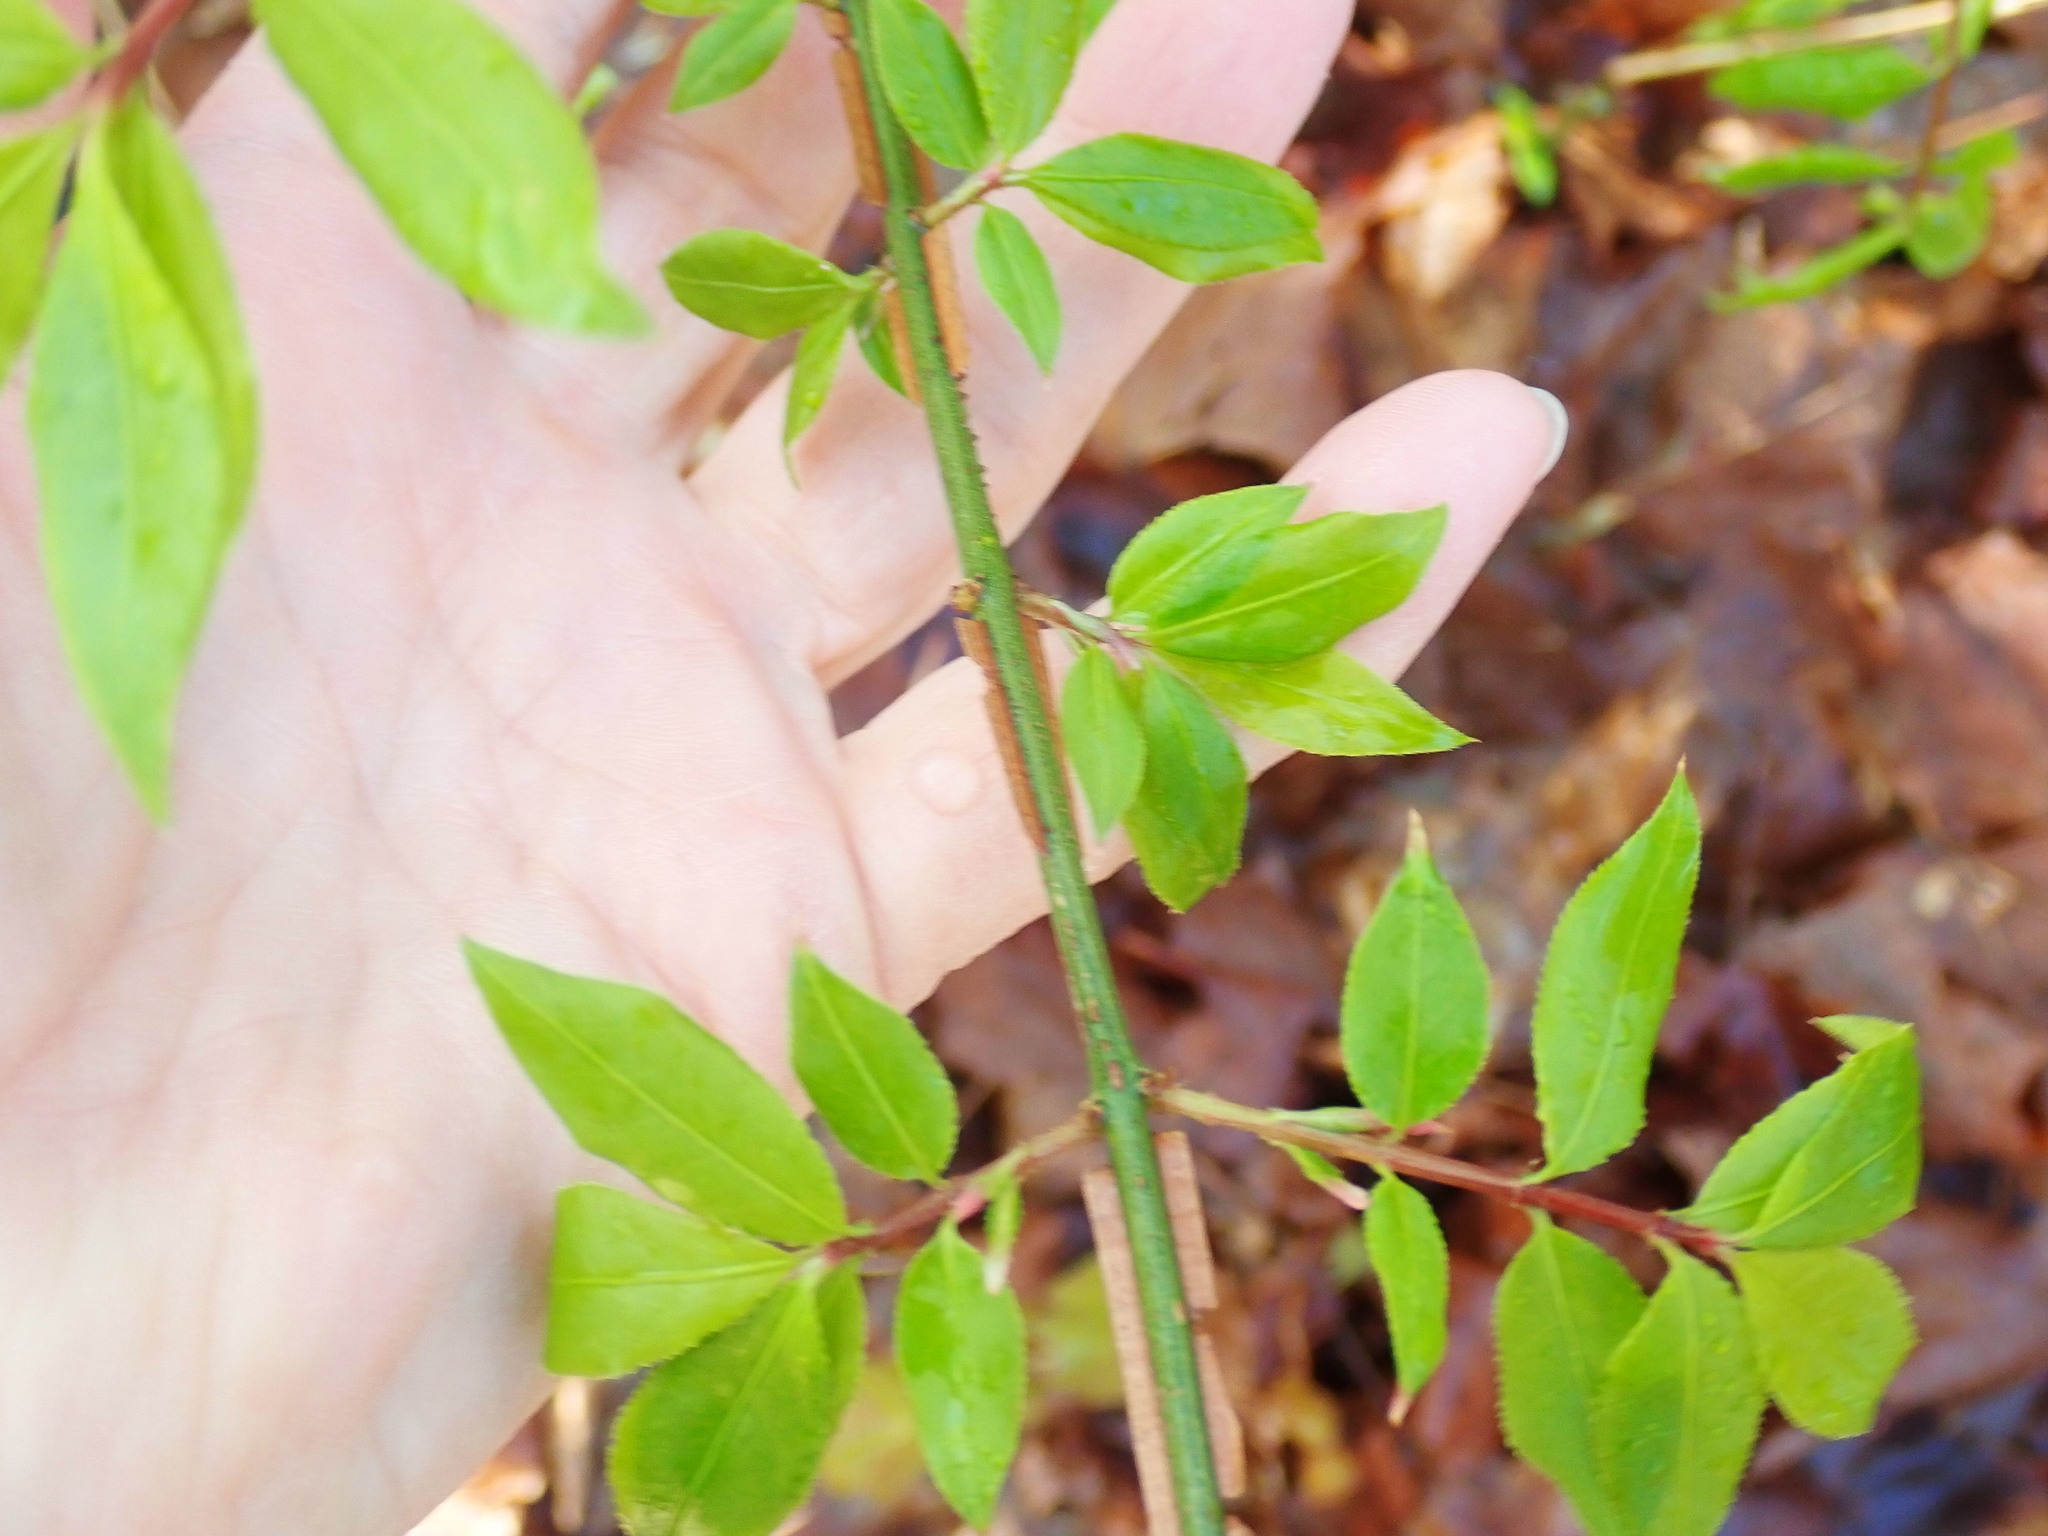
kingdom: Plantae
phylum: Tracheophyta
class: Magnoliopsida
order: Celastrales
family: Celastraceae
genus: Euonymus
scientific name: Euonymus alatus
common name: Winged euonymus
